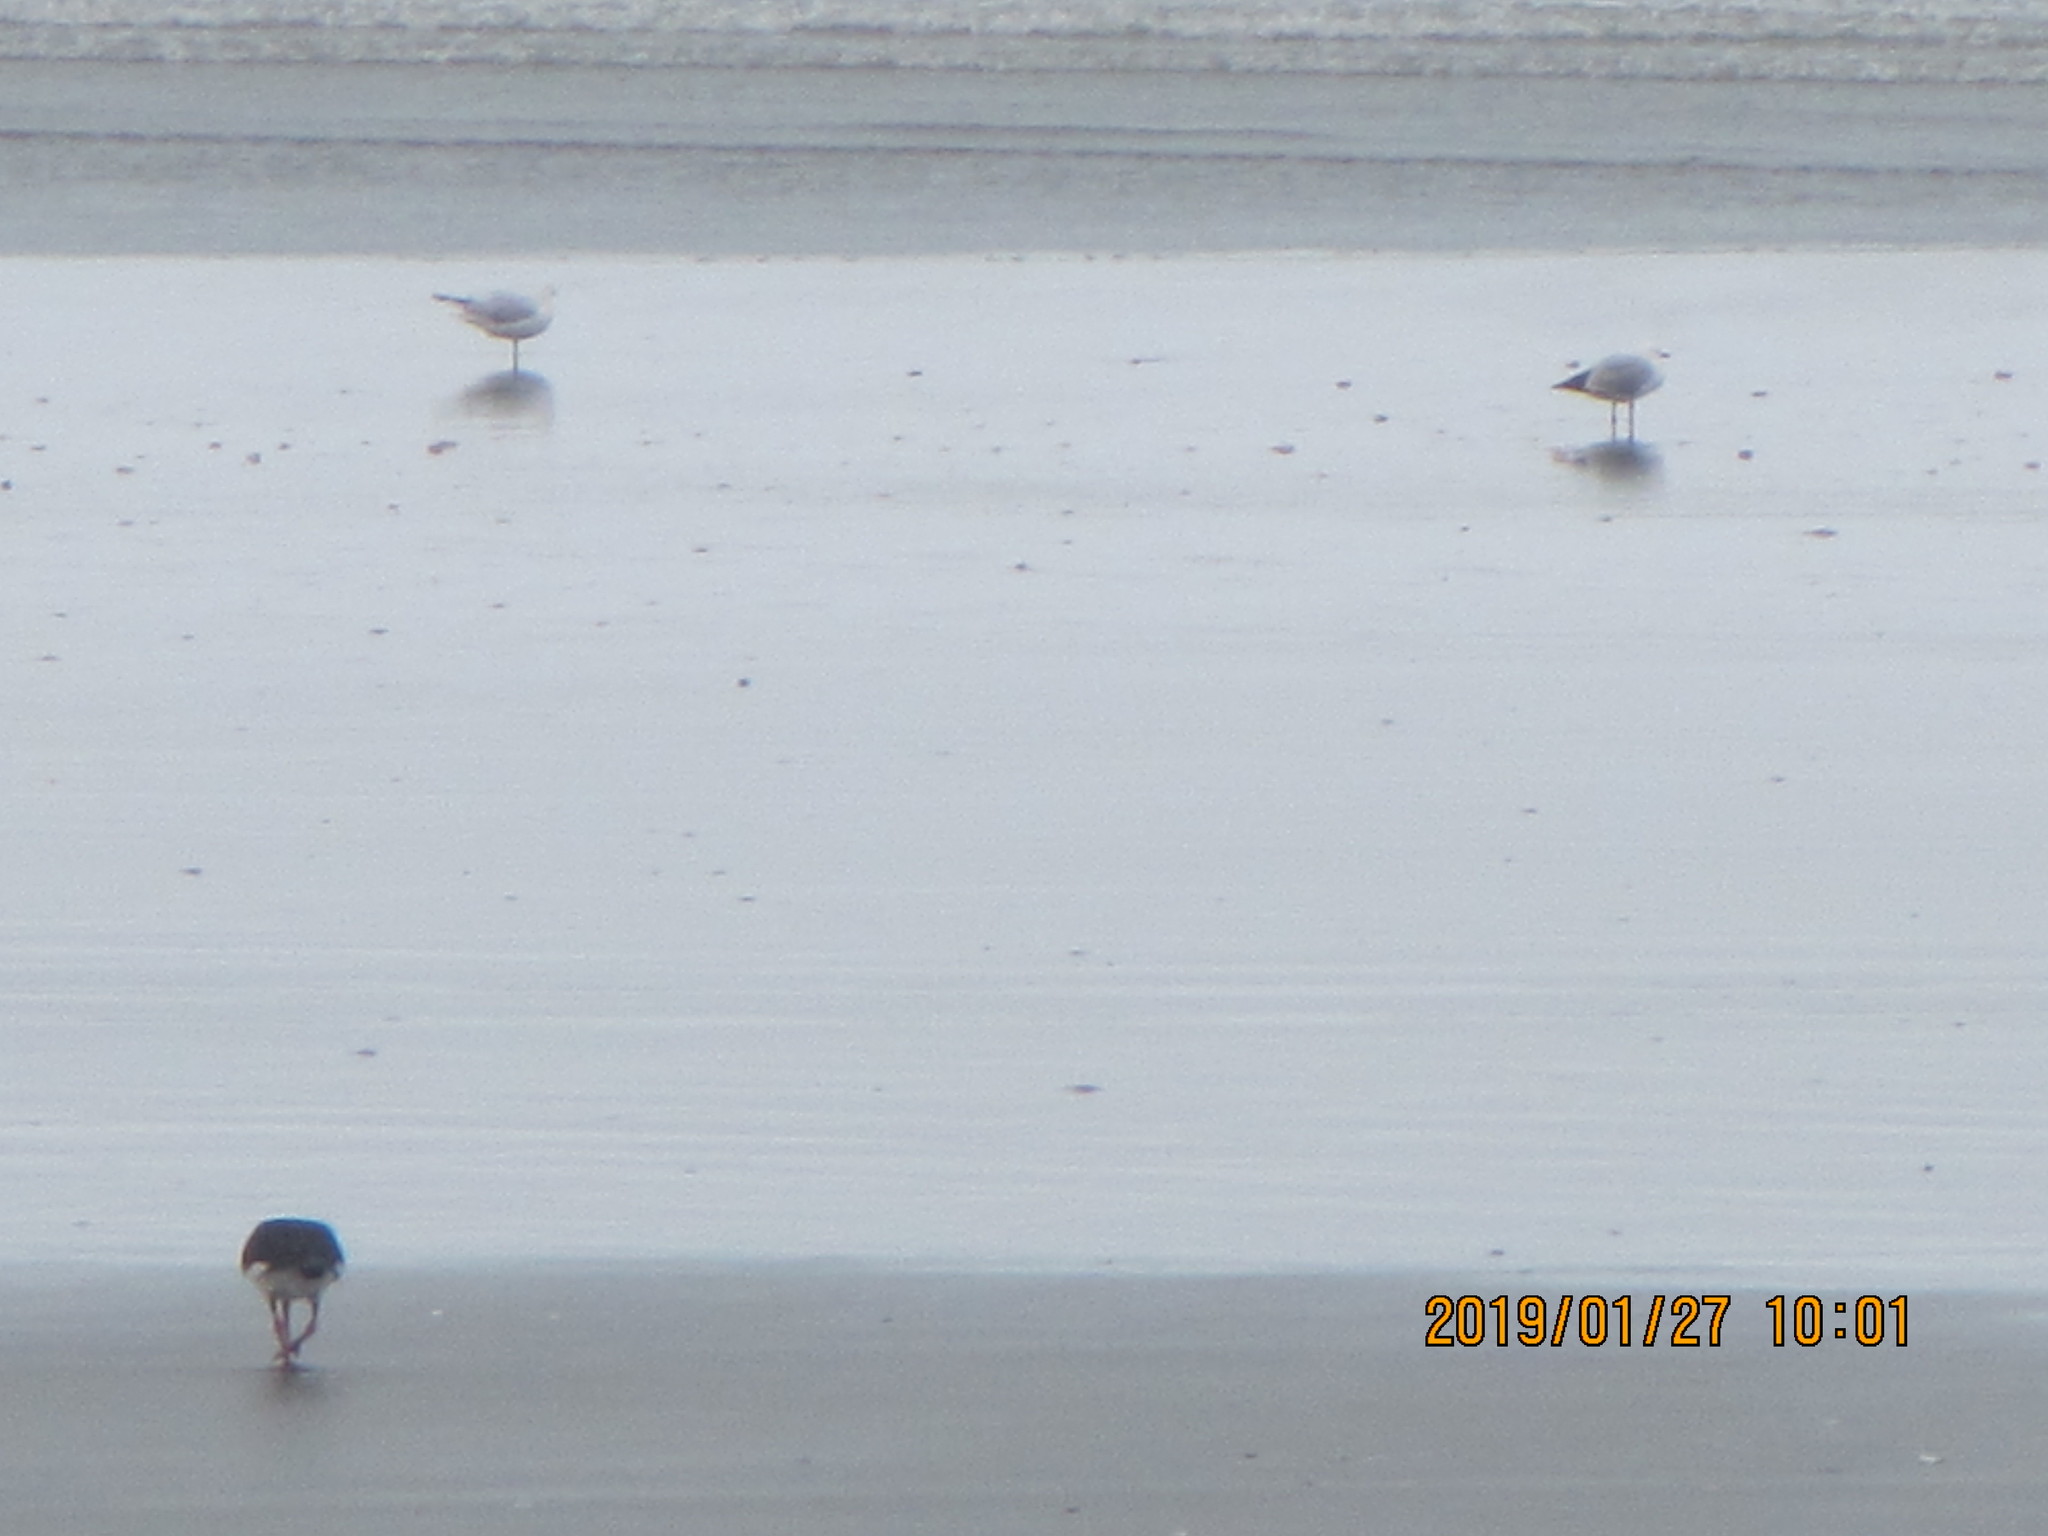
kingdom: Animalia
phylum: Chordata
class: Aves
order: Charadriiformes
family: Haematopodidae
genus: Haematopus
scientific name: Haematopus finschi
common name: South island oystercatcher
